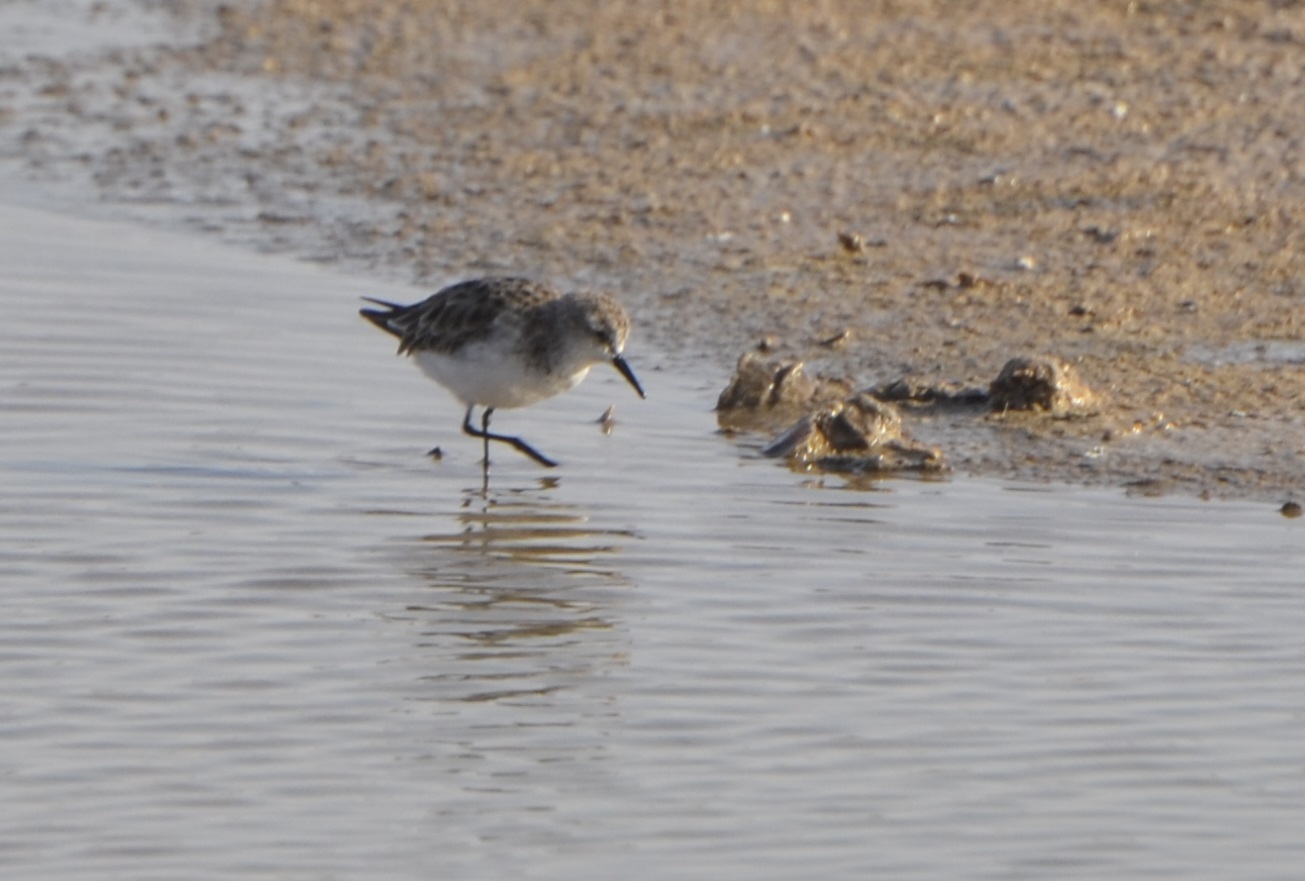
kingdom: Animalia
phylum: Chordata
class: Aves
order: Charadriiformes
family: Scolopacidae
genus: Calidris
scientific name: Calidris minuta
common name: Little stint
